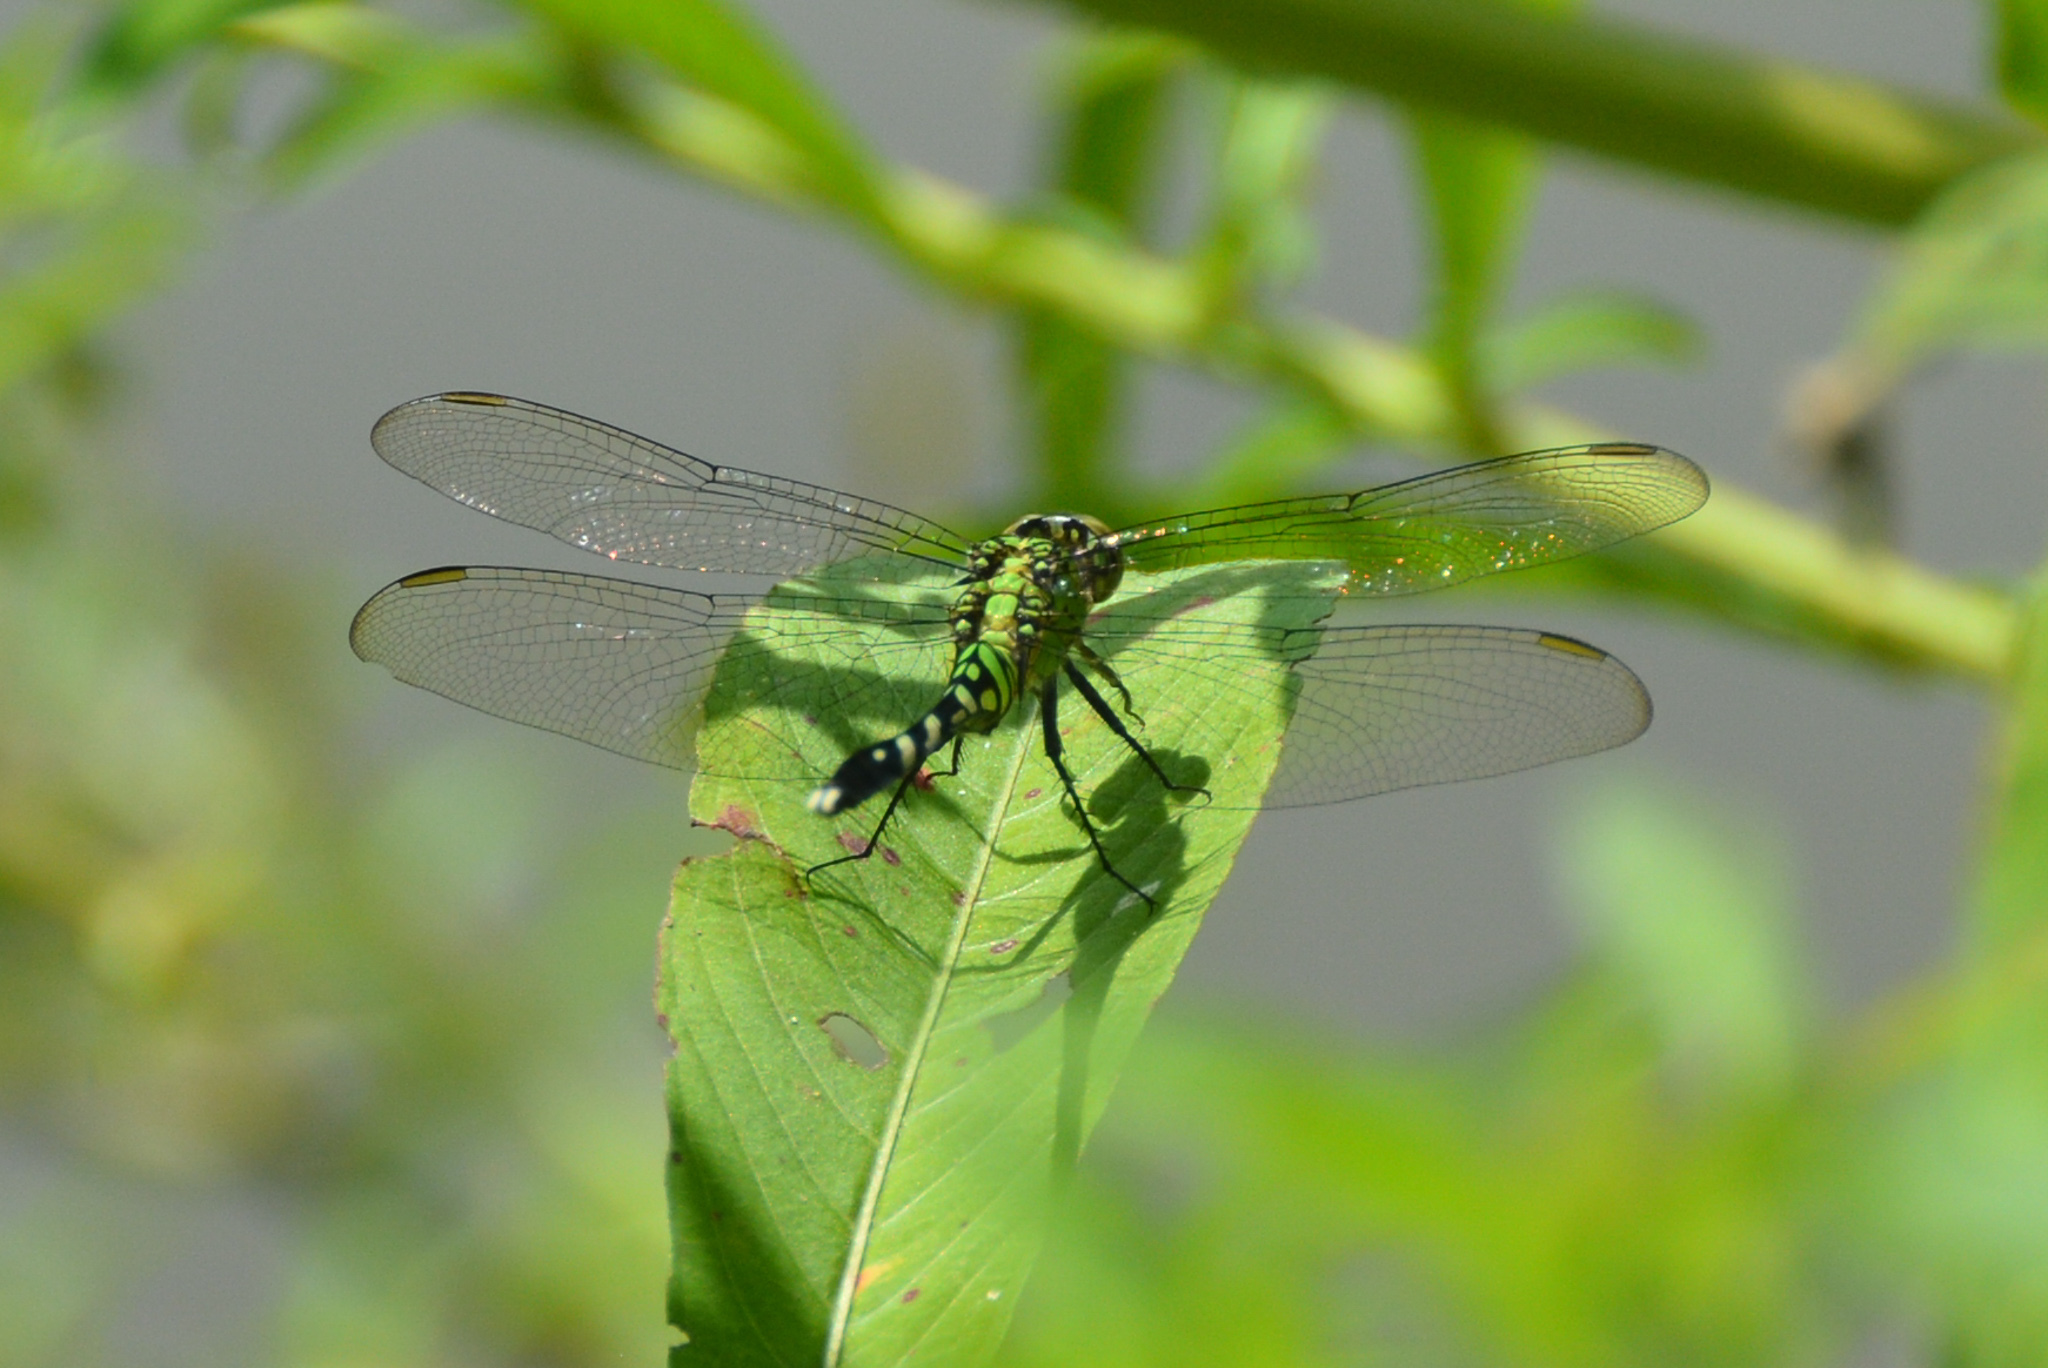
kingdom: Animalia
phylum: Arthropoda
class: Insecta
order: Odonata
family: Libellulidae
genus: Erythemis
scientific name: Erythemis simplicicollis
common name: Eastern pondhawk
